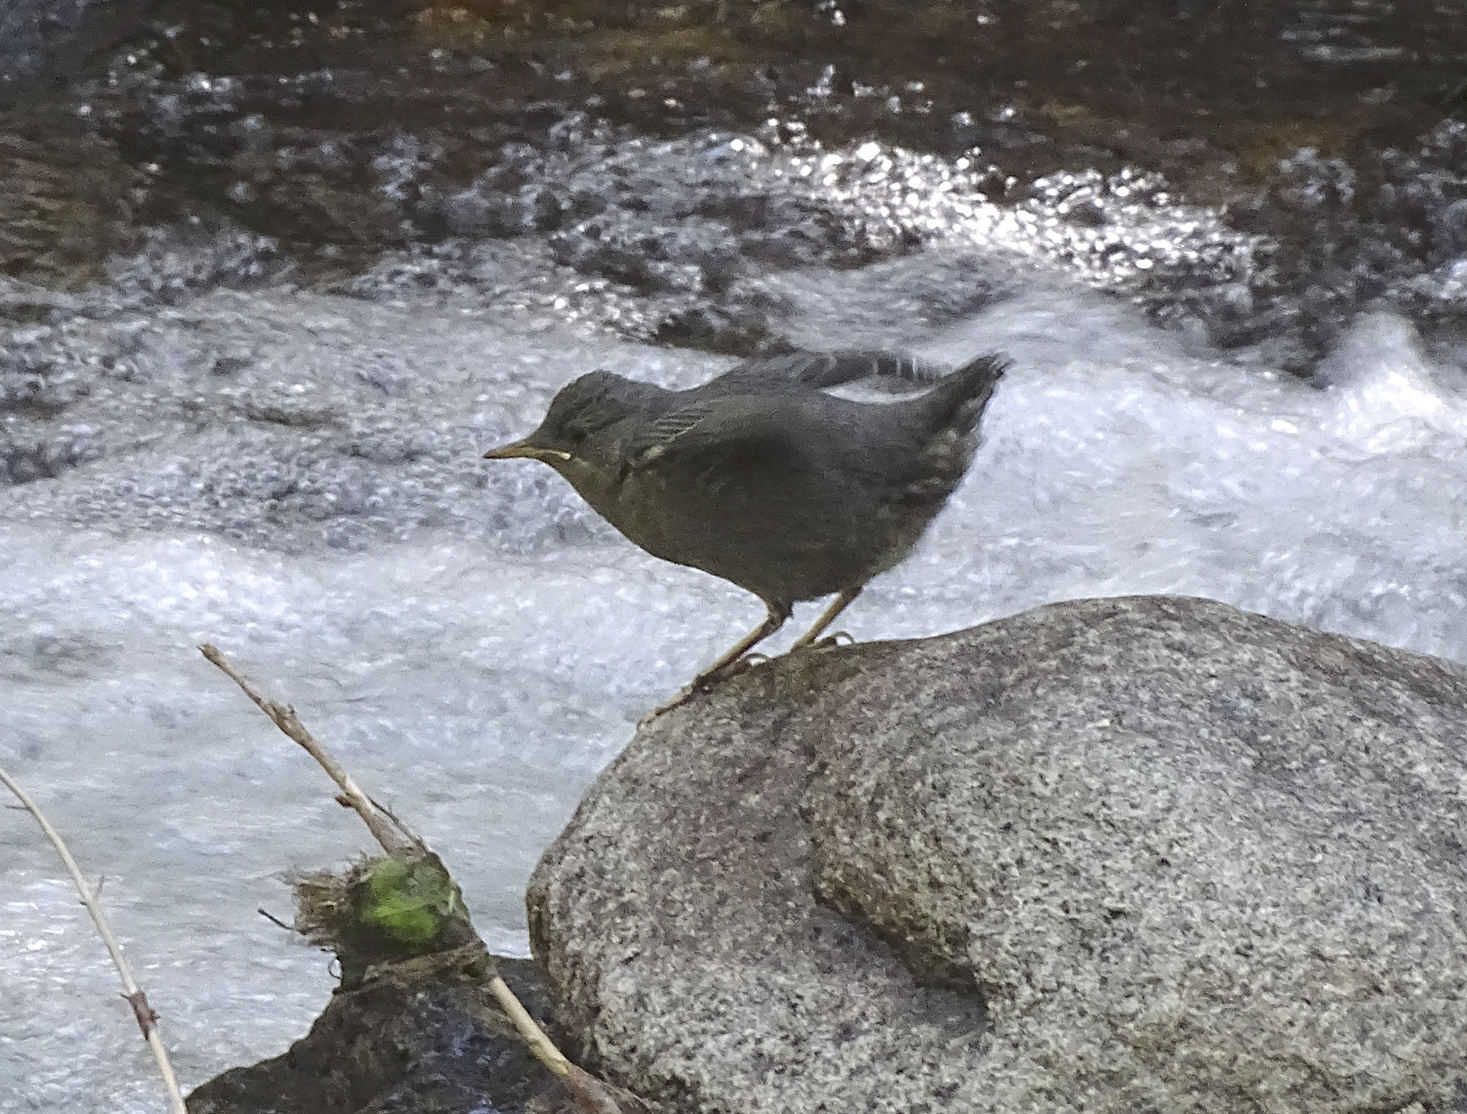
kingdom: Animalia
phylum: Chordata
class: Aves
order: Passeriformes
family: Cinclidae
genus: Cinclus
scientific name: Cinclus mexicanus
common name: American dipper
